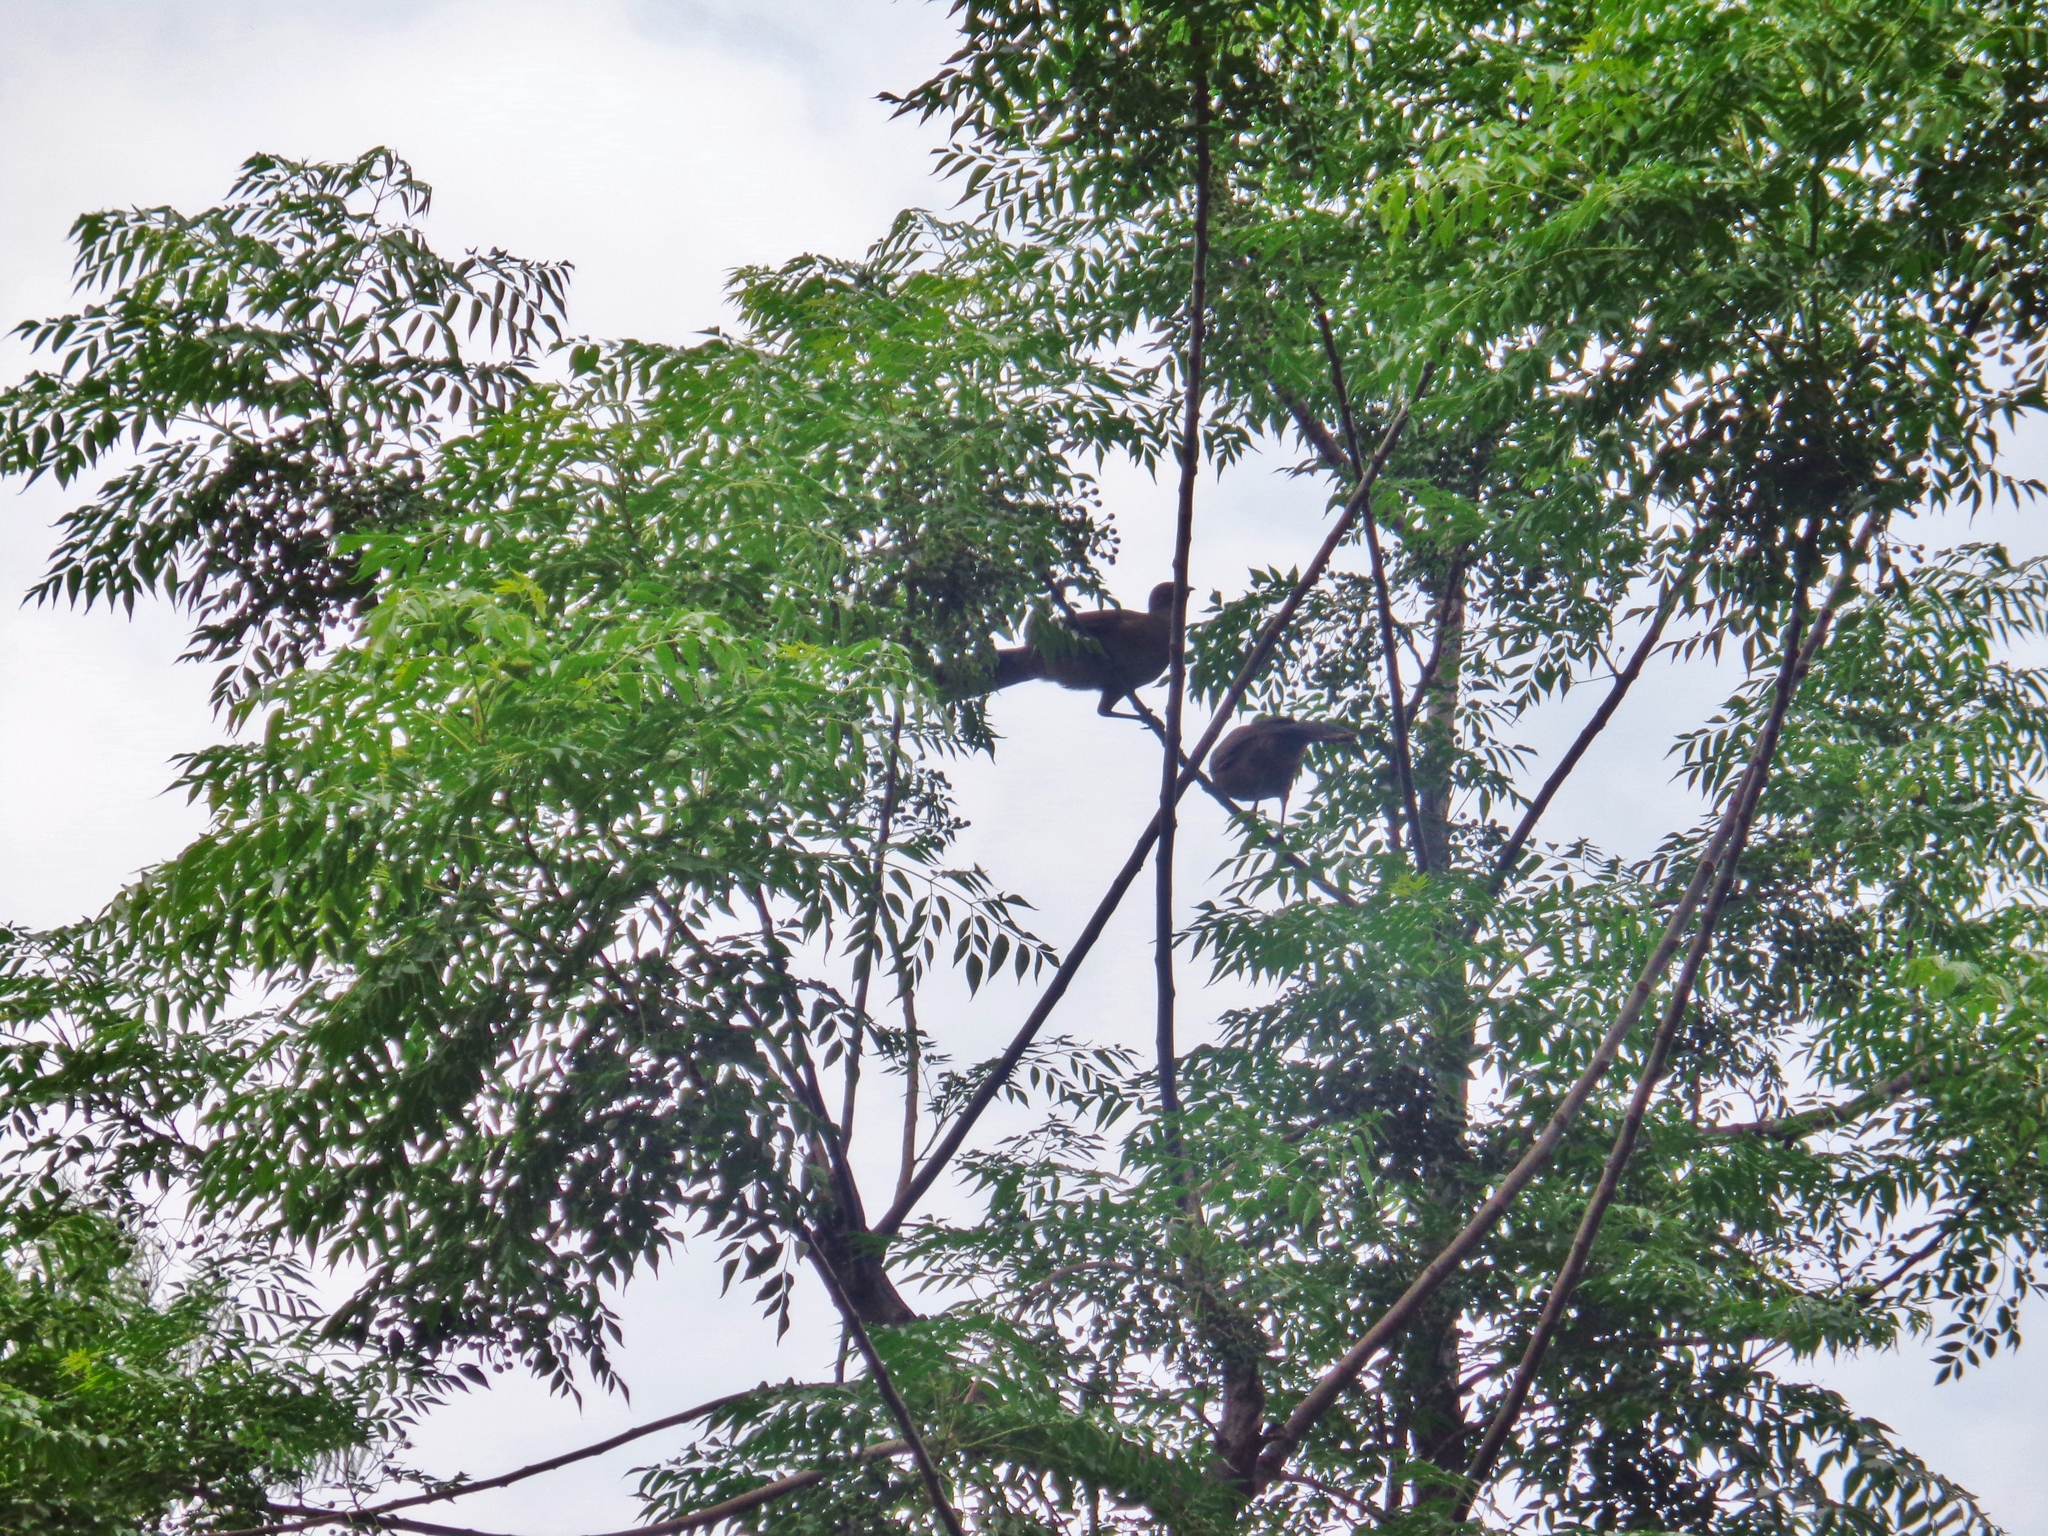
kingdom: Animalia
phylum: Chordata
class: Aves
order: Galliformes
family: Cracidae
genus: Ortalis
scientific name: Ortalis vetula
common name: Plain chachalaca
